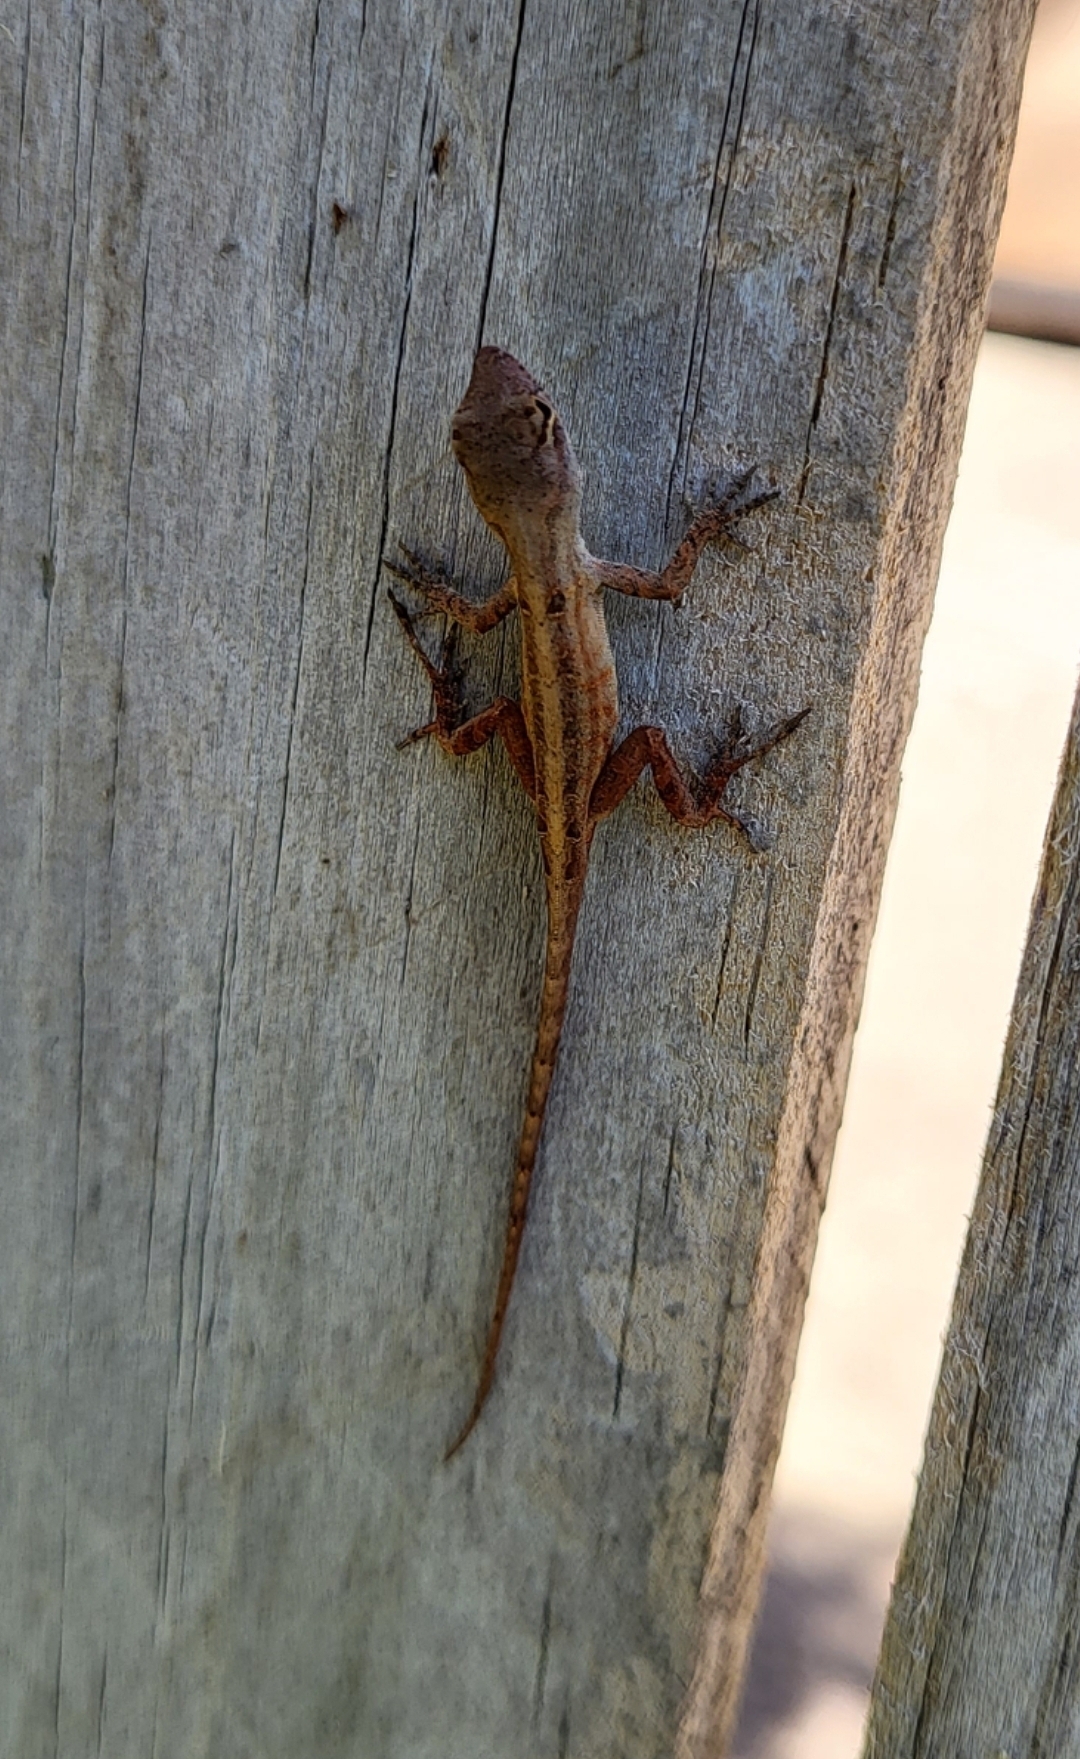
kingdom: Animalia
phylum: Chordata
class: Squamata
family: Dactyloidae
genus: Anolis
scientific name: Anolis sagrei
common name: Brown anole
